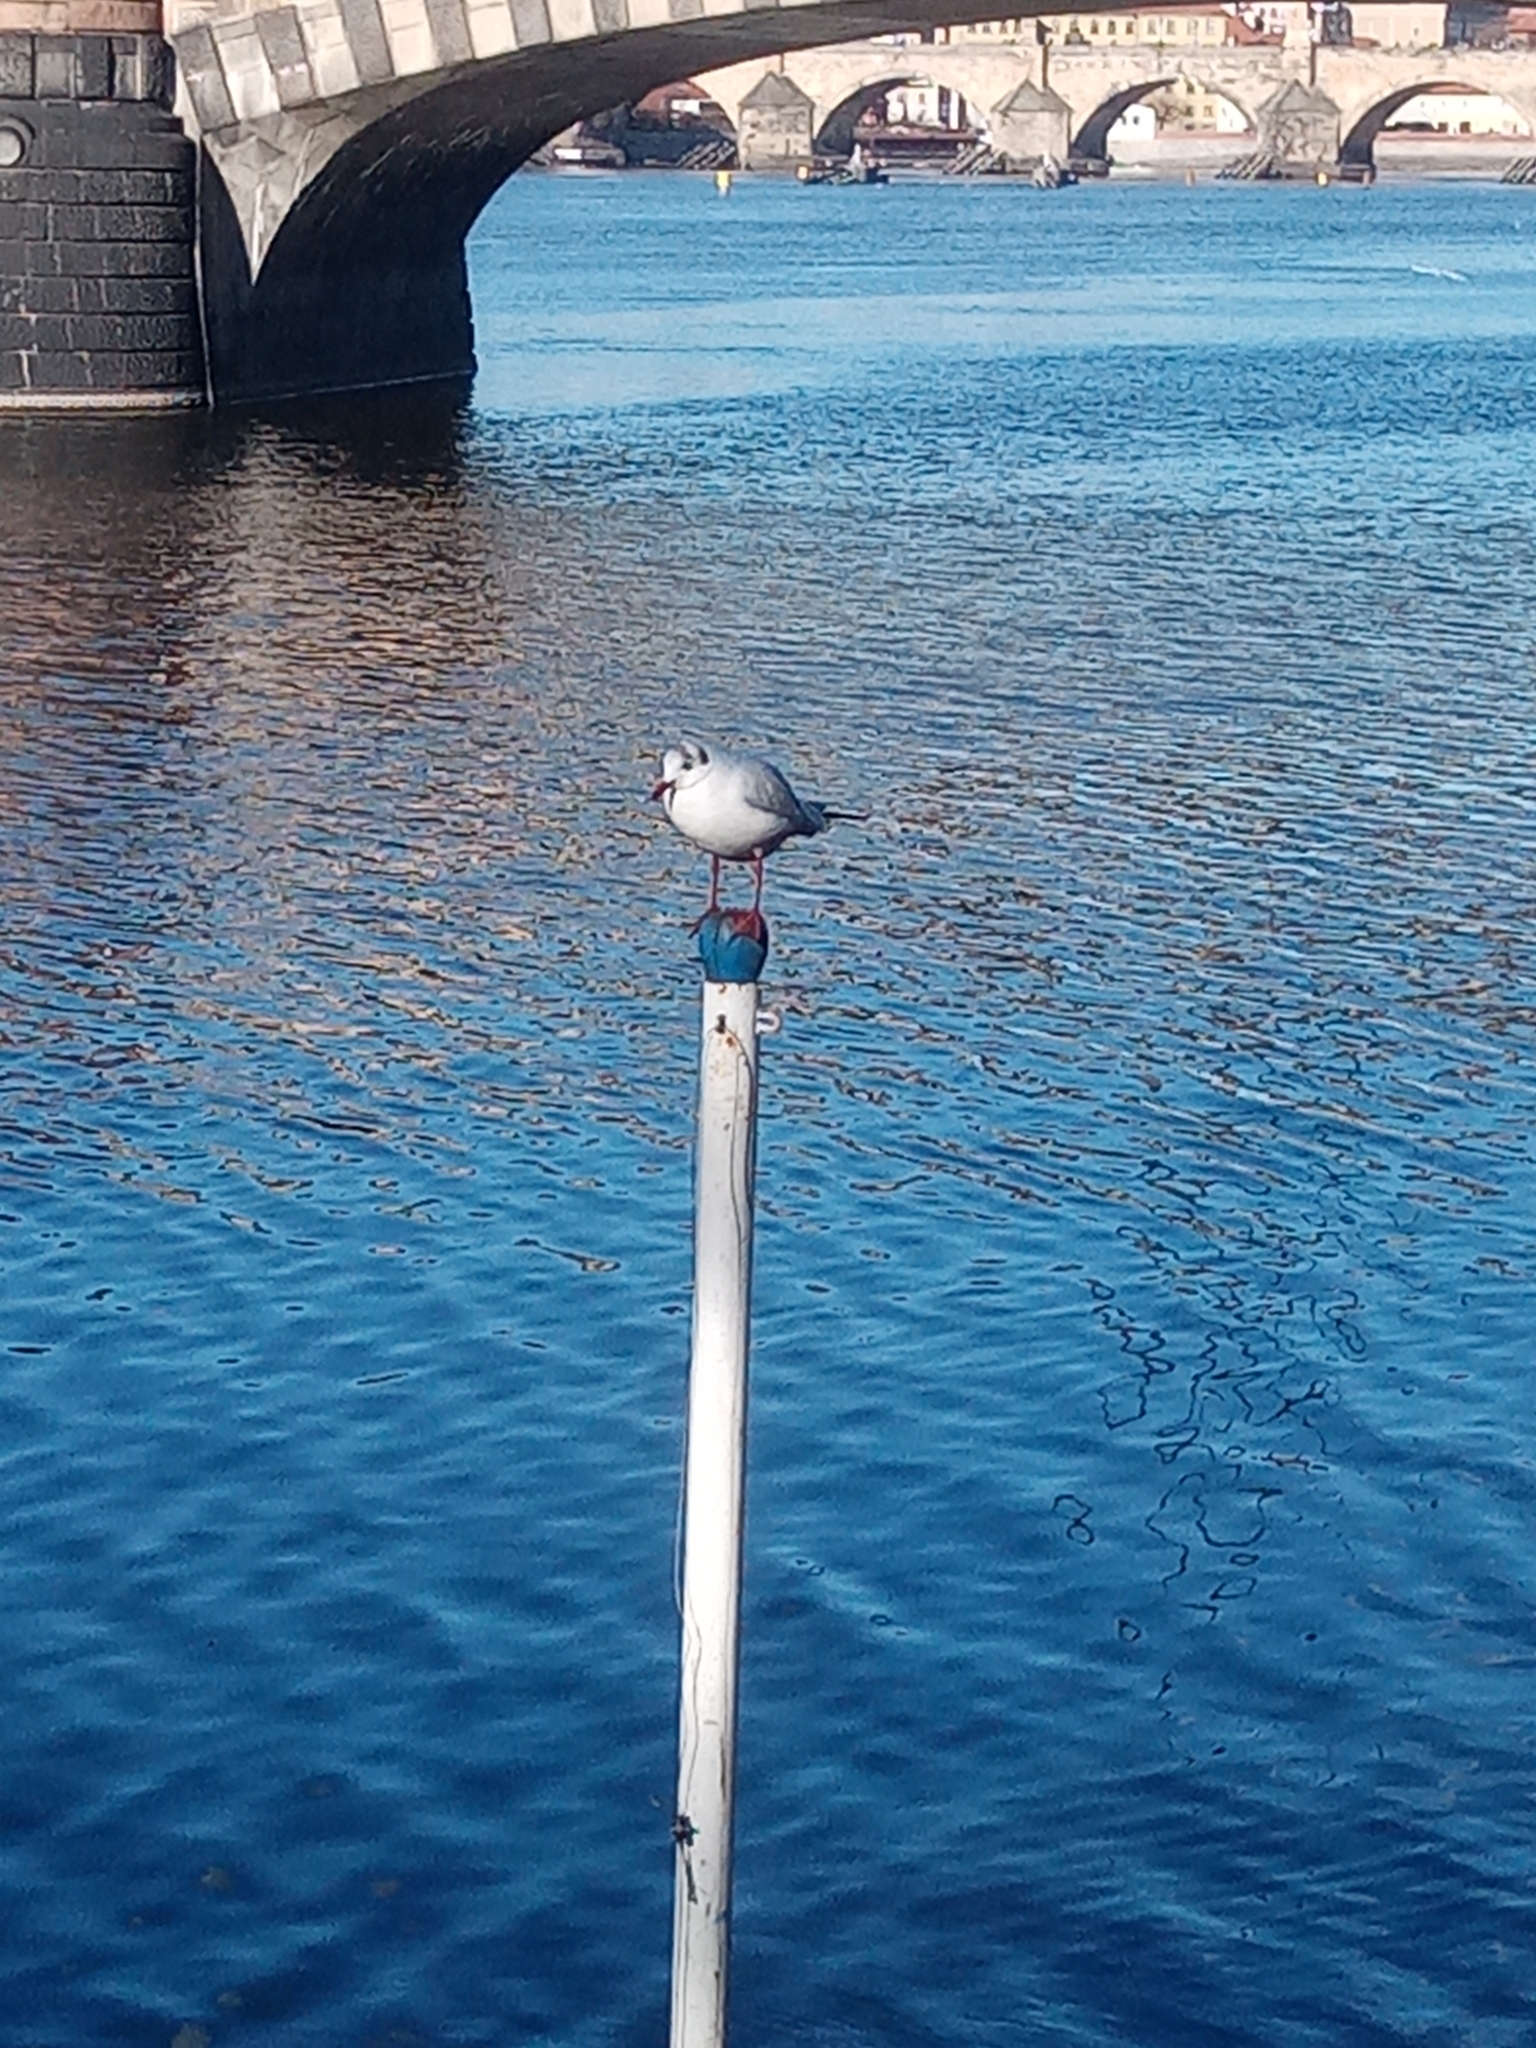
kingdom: Animalia
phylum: Chordata
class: Aves
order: Charadriiformes
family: Laridae
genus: Chroicocephalus
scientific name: Chroicocephalus ridibundus
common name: Black-headed gull
